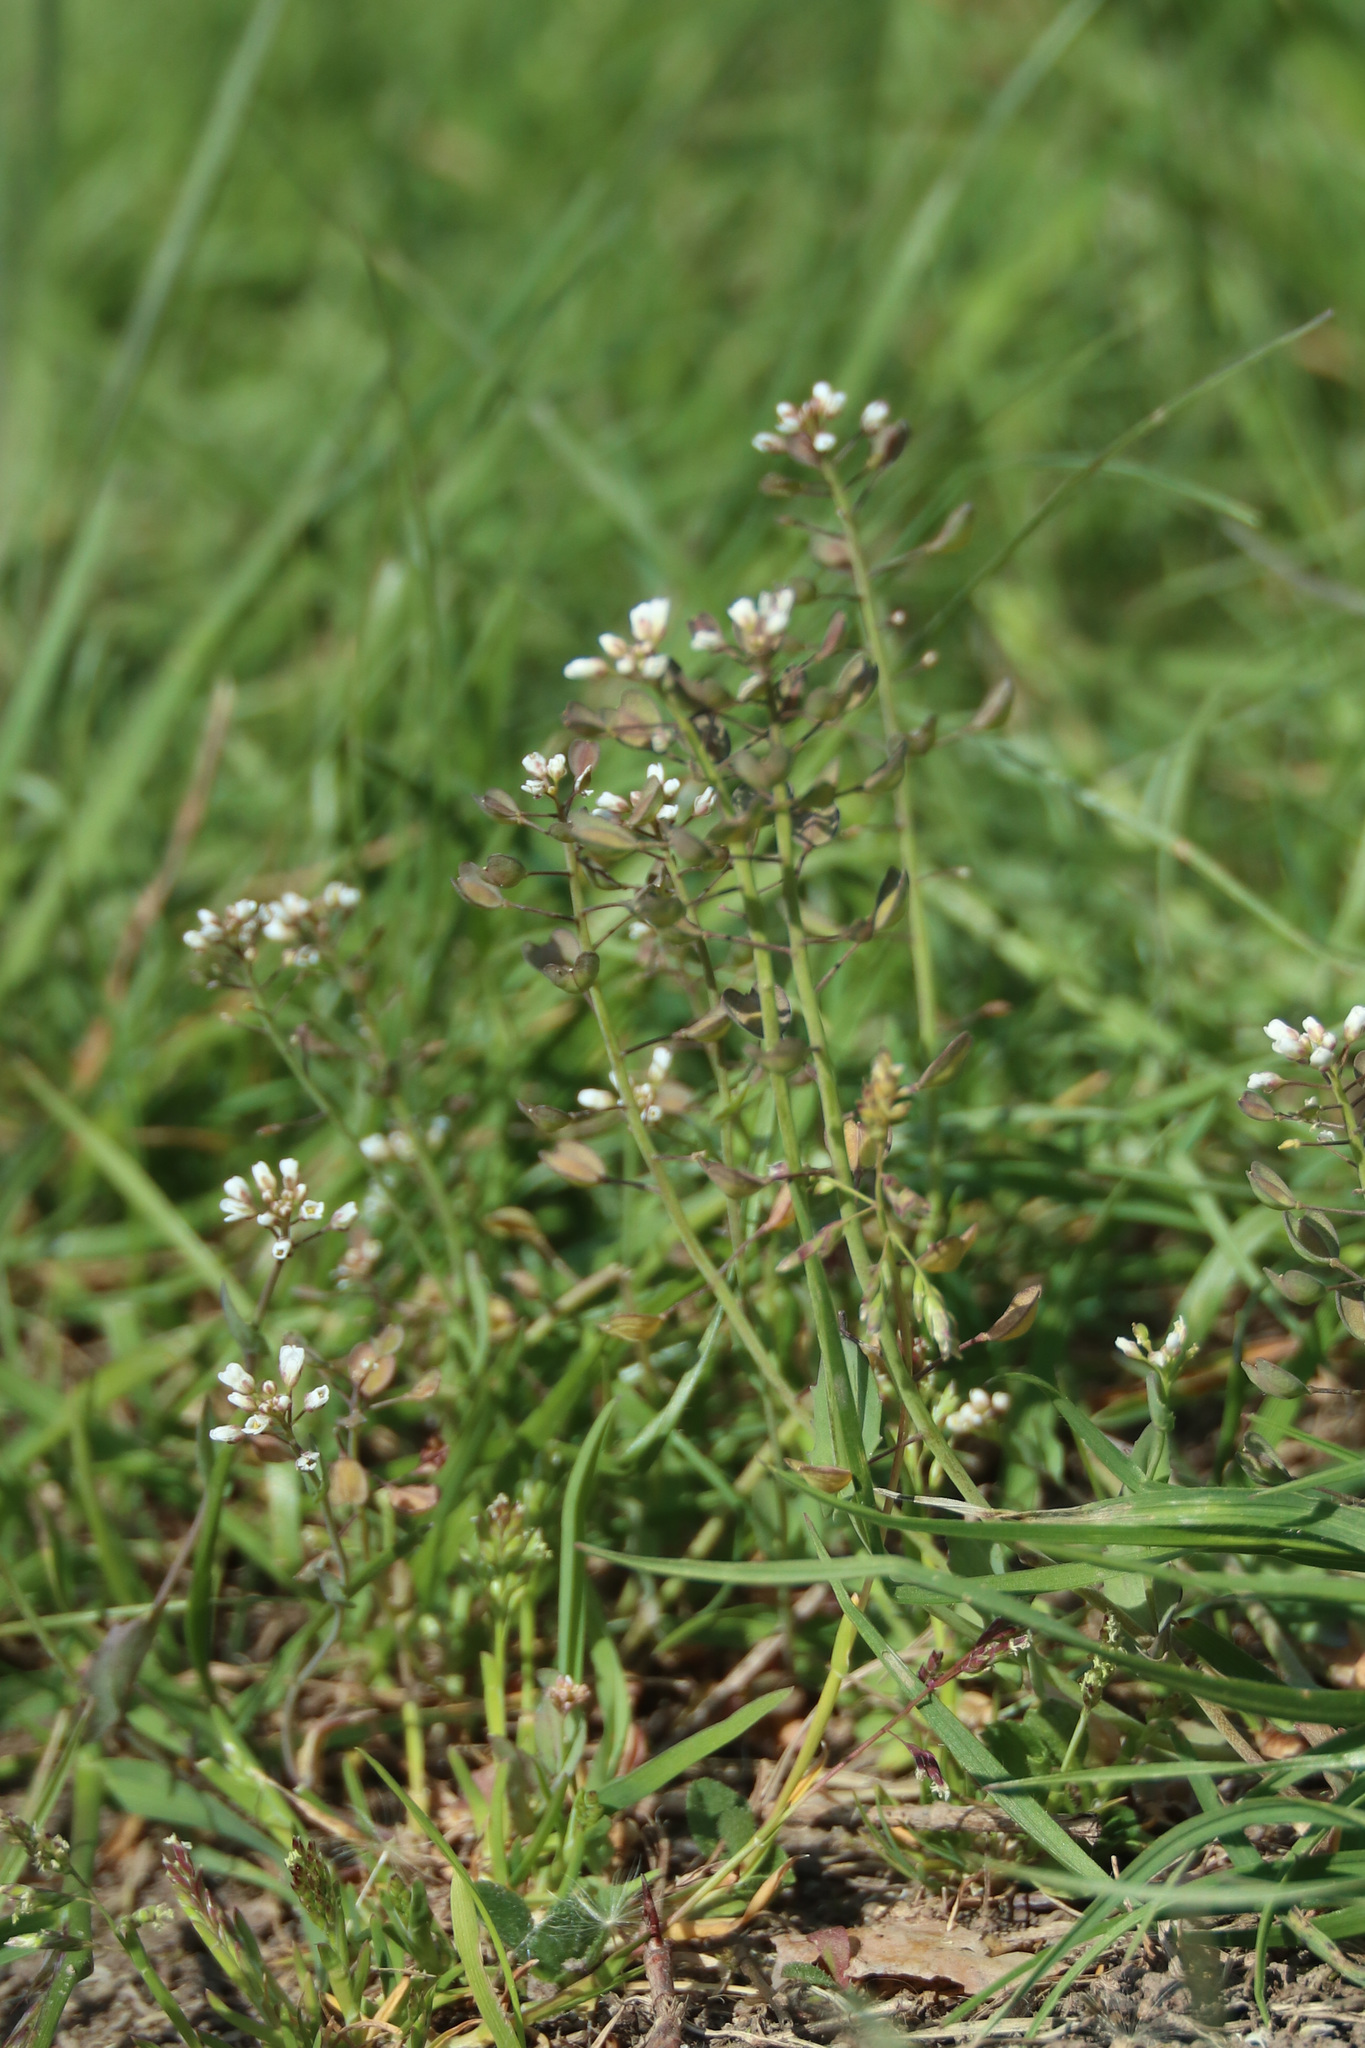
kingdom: Plantae
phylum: Tracheophyta
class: Magnoliopsida
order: Brassicales
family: Brassicaceae
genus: Capsella
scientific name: Capsella bursa-pastoris
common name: Shepherd's purse
